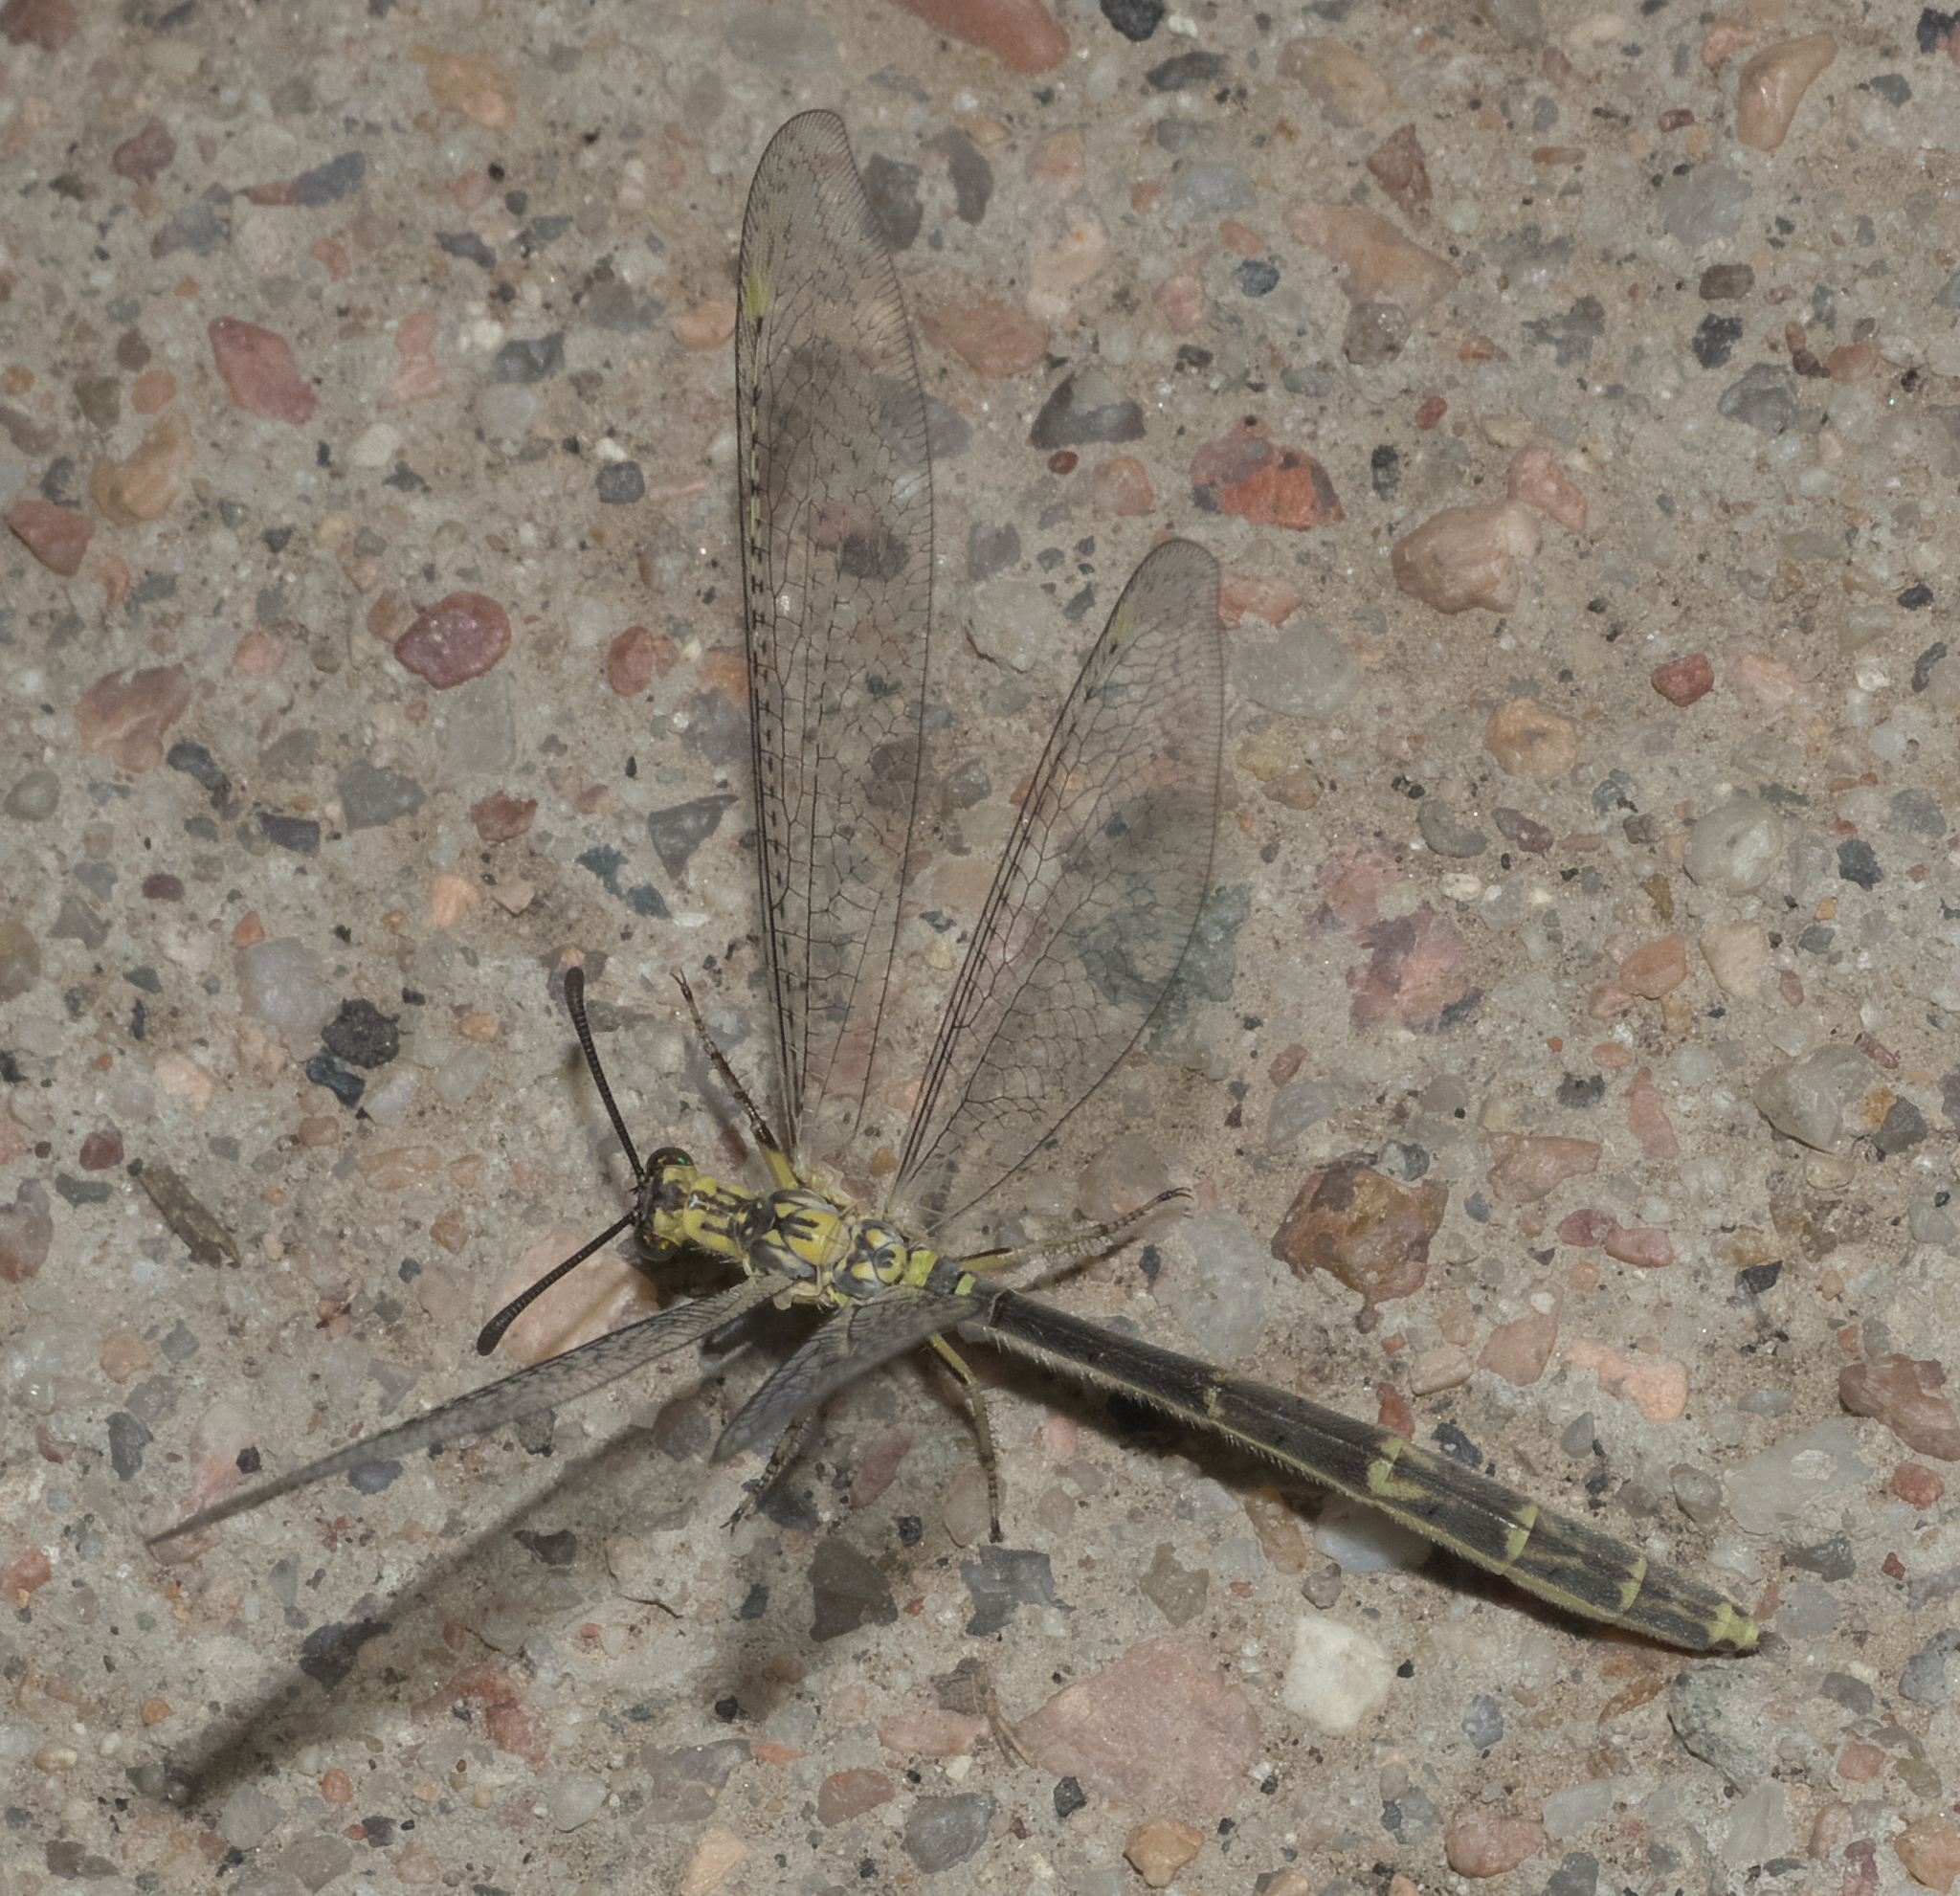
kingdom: Animalia
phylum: Arthropoda
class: Insecta
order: Neuroptera
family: Myrmeleontidae
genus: Scotoleon
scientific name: Scotoleon nigrilabris
